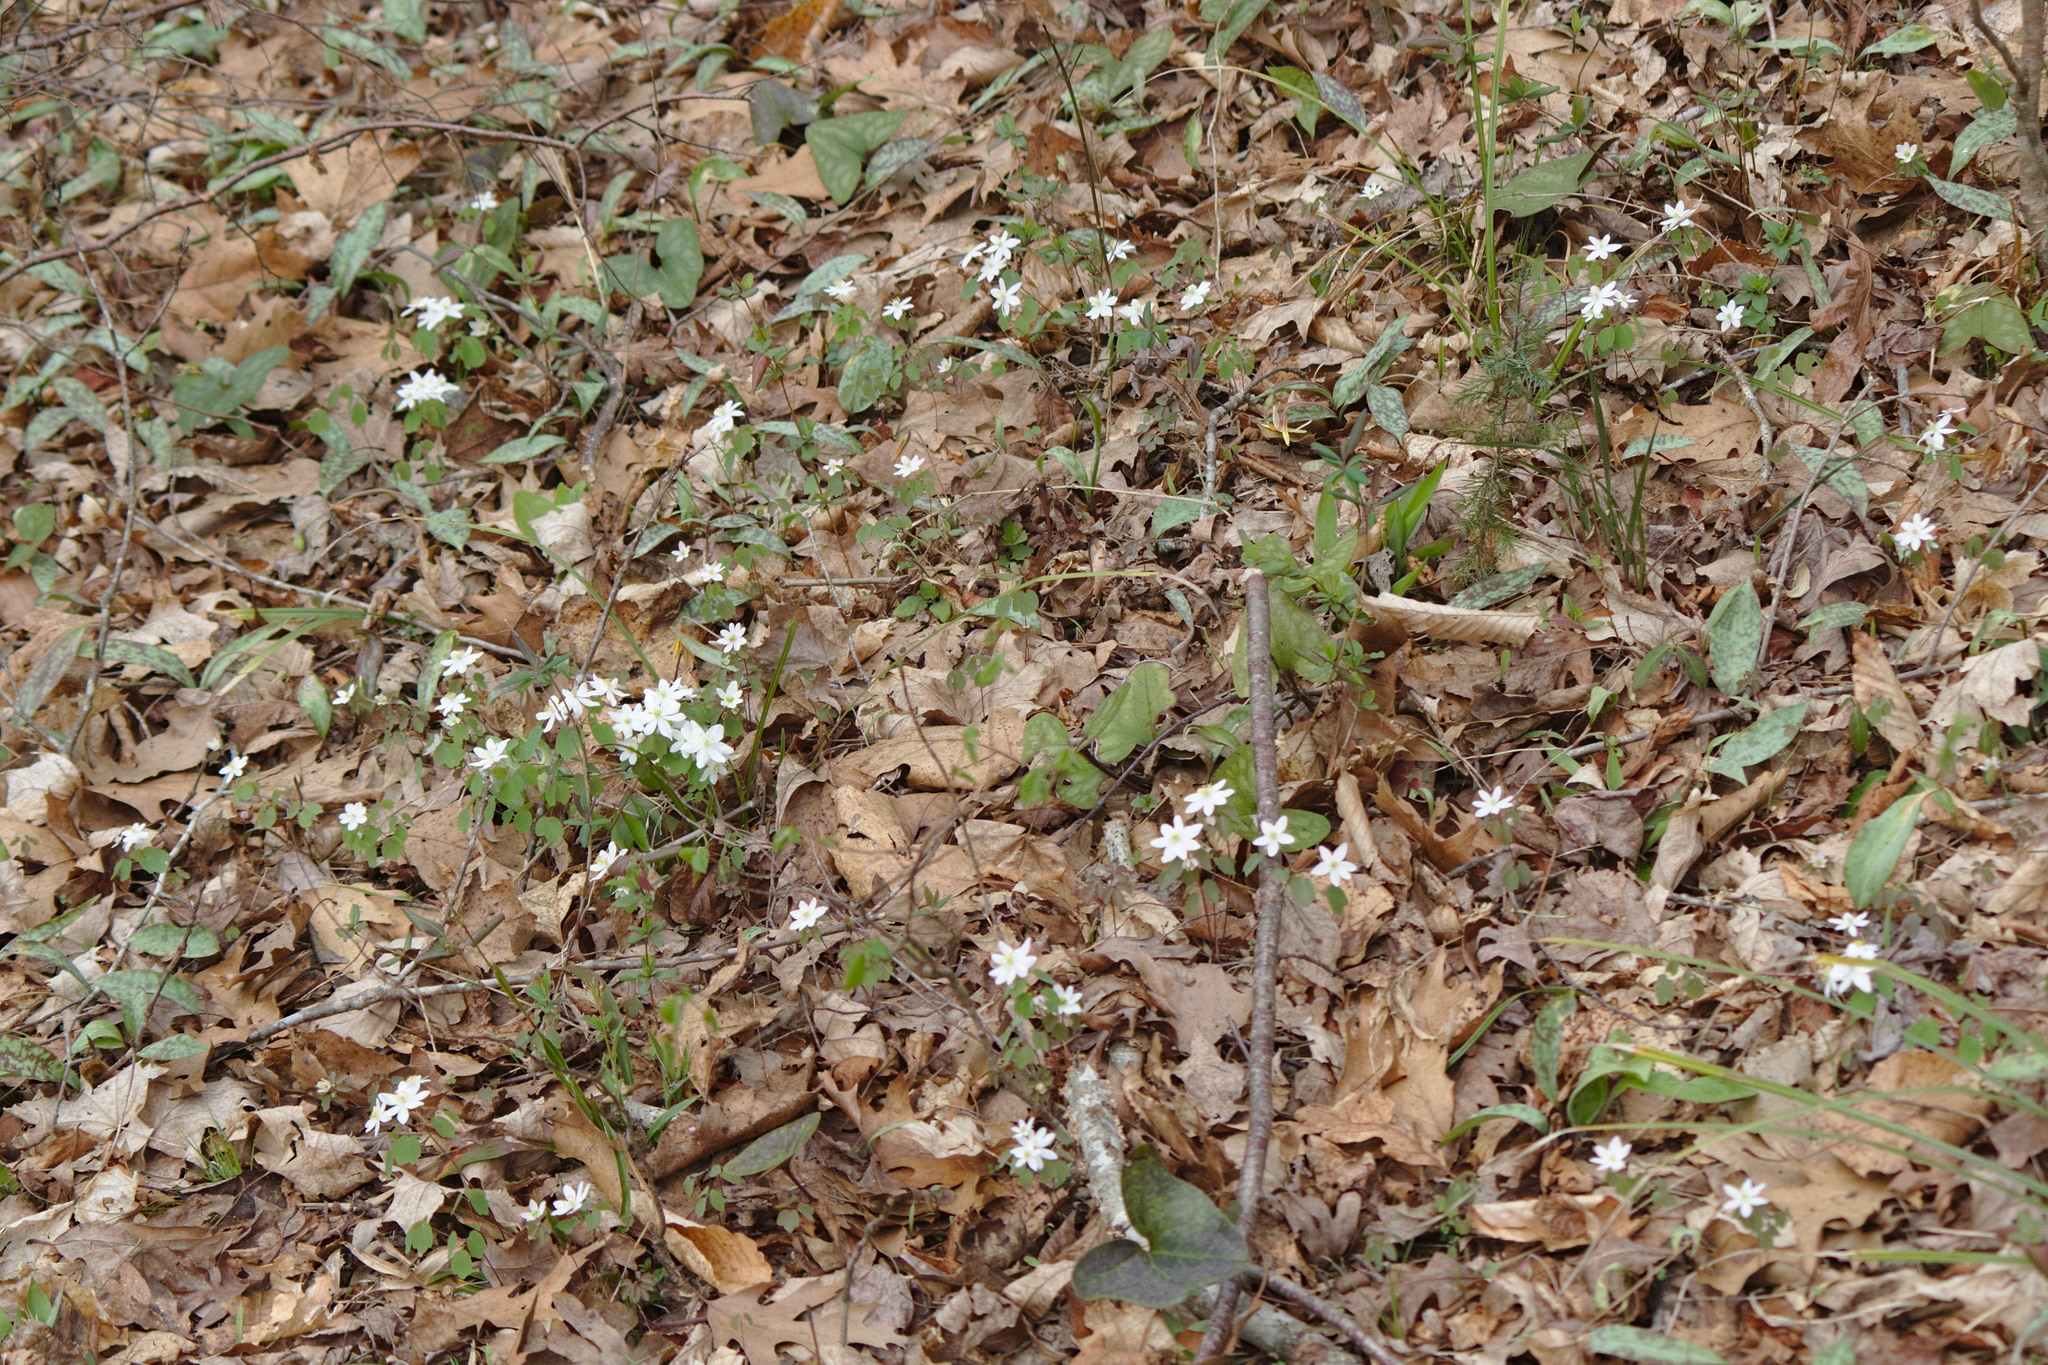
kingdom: Plantae
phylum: Tracheophyta
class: Magnoliopsida
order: Ranunculales
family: Ranunculaceae
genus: Thalictrum
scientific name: Thalictrum thalictroides
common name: Rue-anemone
